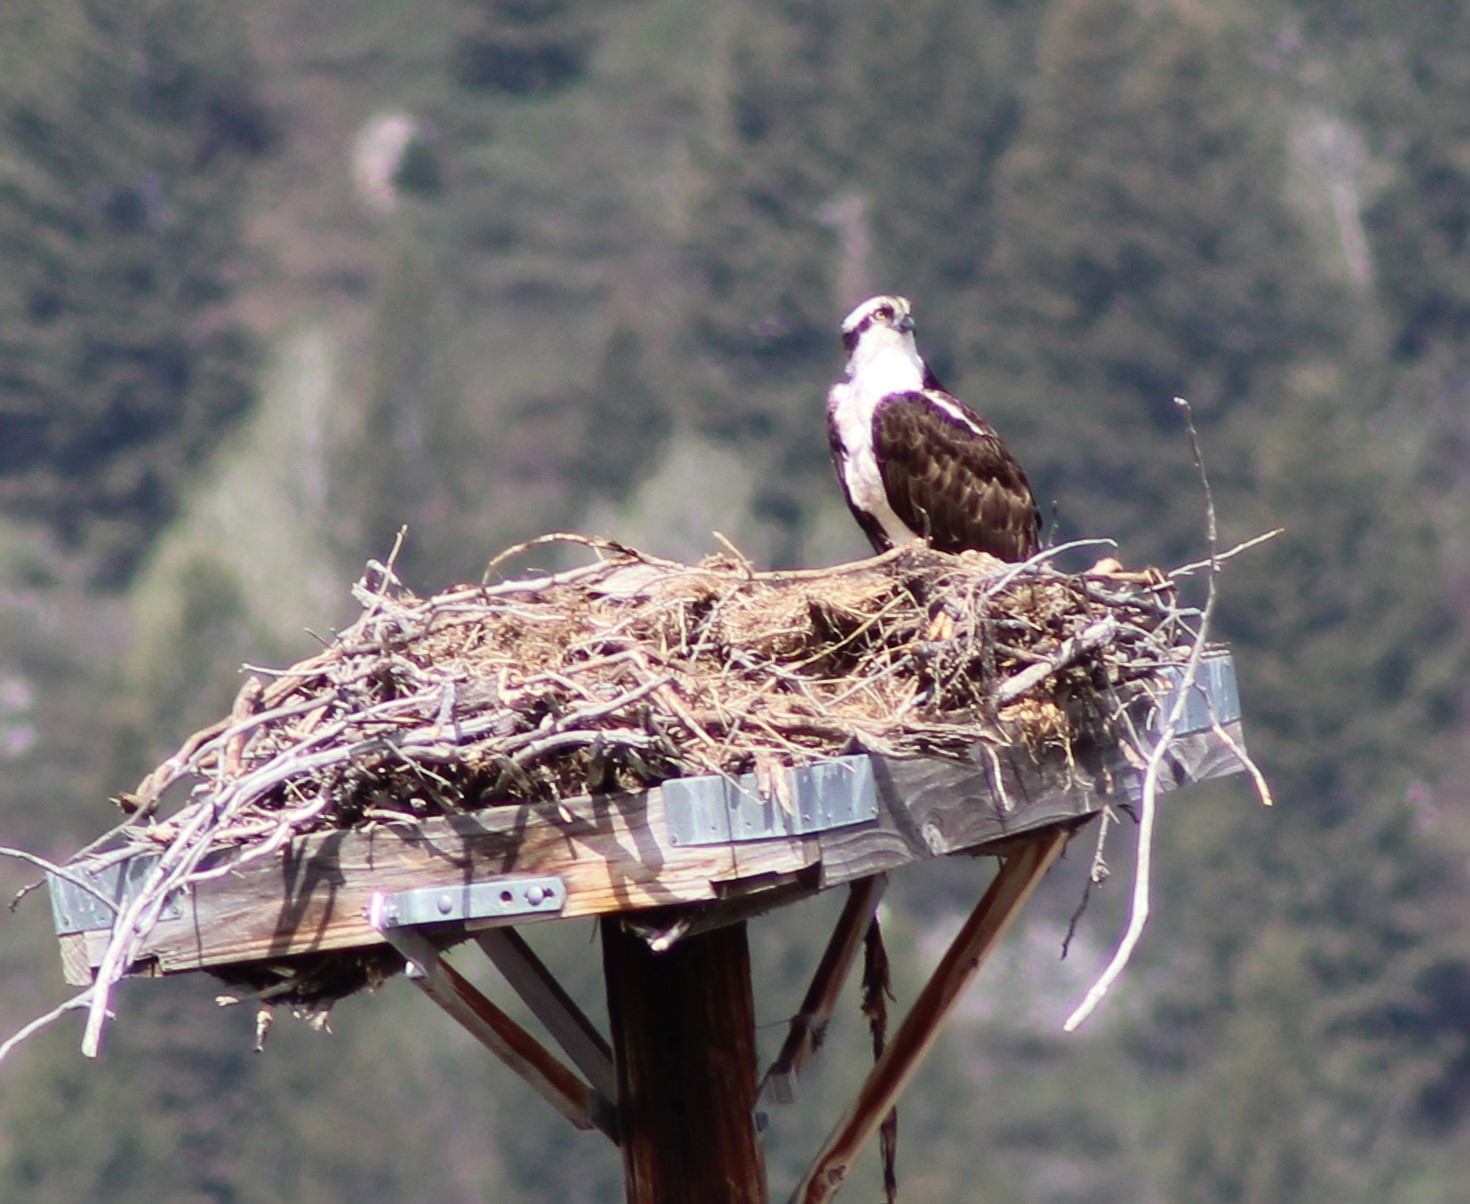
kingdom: Animalia
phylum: Chordata
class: Aves
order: Accipitriformes
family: Pandionidae
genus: Pandion
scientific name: Pandion haliaetus
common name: Osprey
